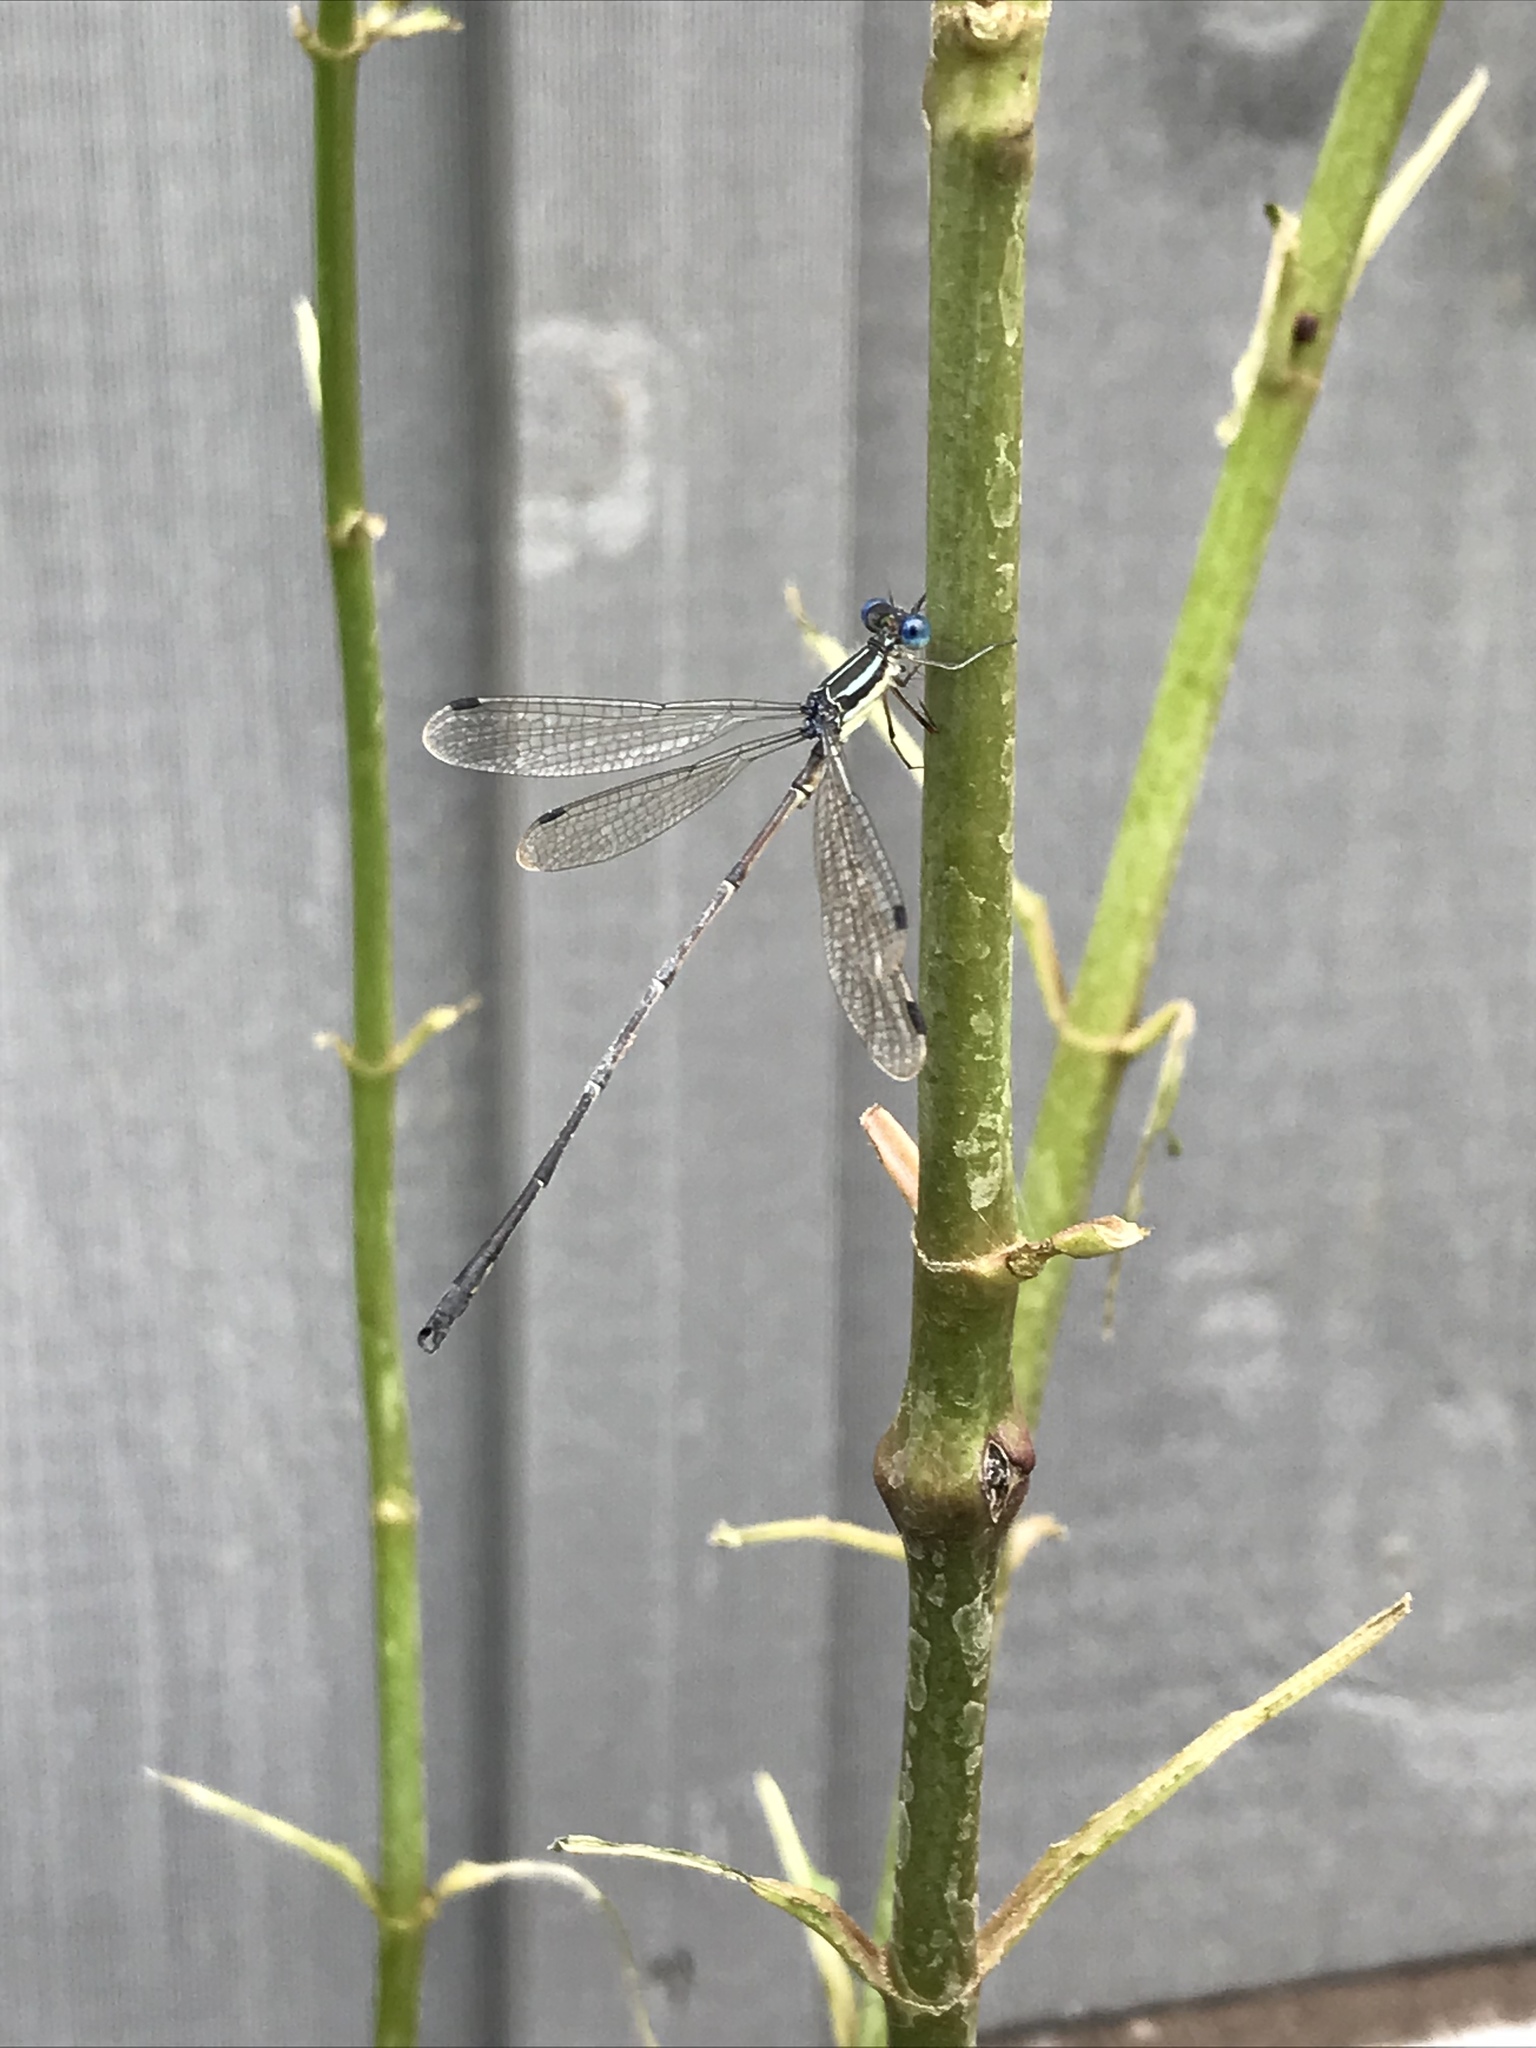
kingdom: Animalia
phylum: Arthropoda
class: Insecta
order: Odonata
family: Lestidae
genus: Lestes
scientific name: Lestes rectangularis
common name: Slender spreadwing
